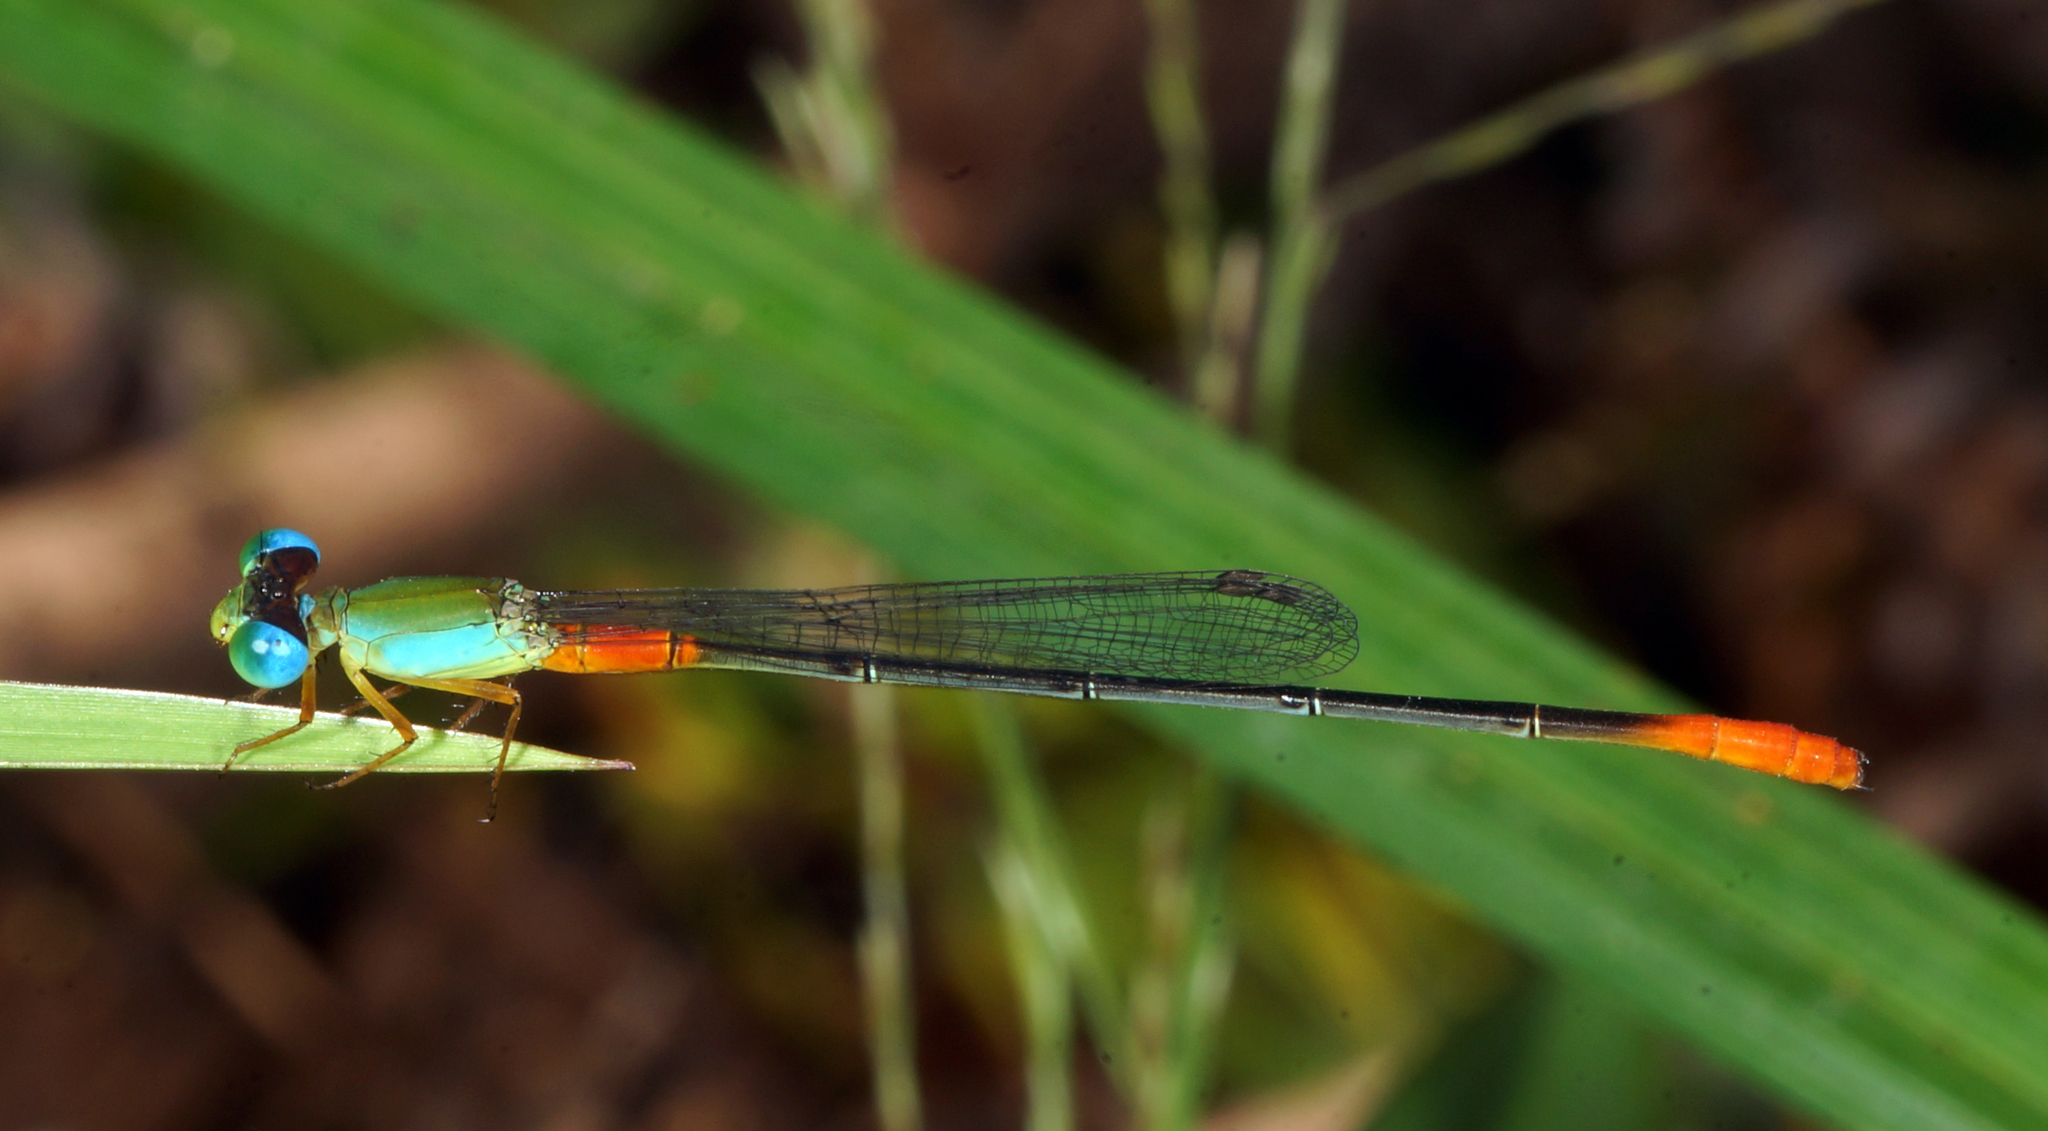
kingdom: Animalia
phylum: Arthropoda
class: Insecta
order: Odonata
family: Coenagrionidae
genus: Ceriagrion
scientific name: Ceriagrion cerinorubellum
